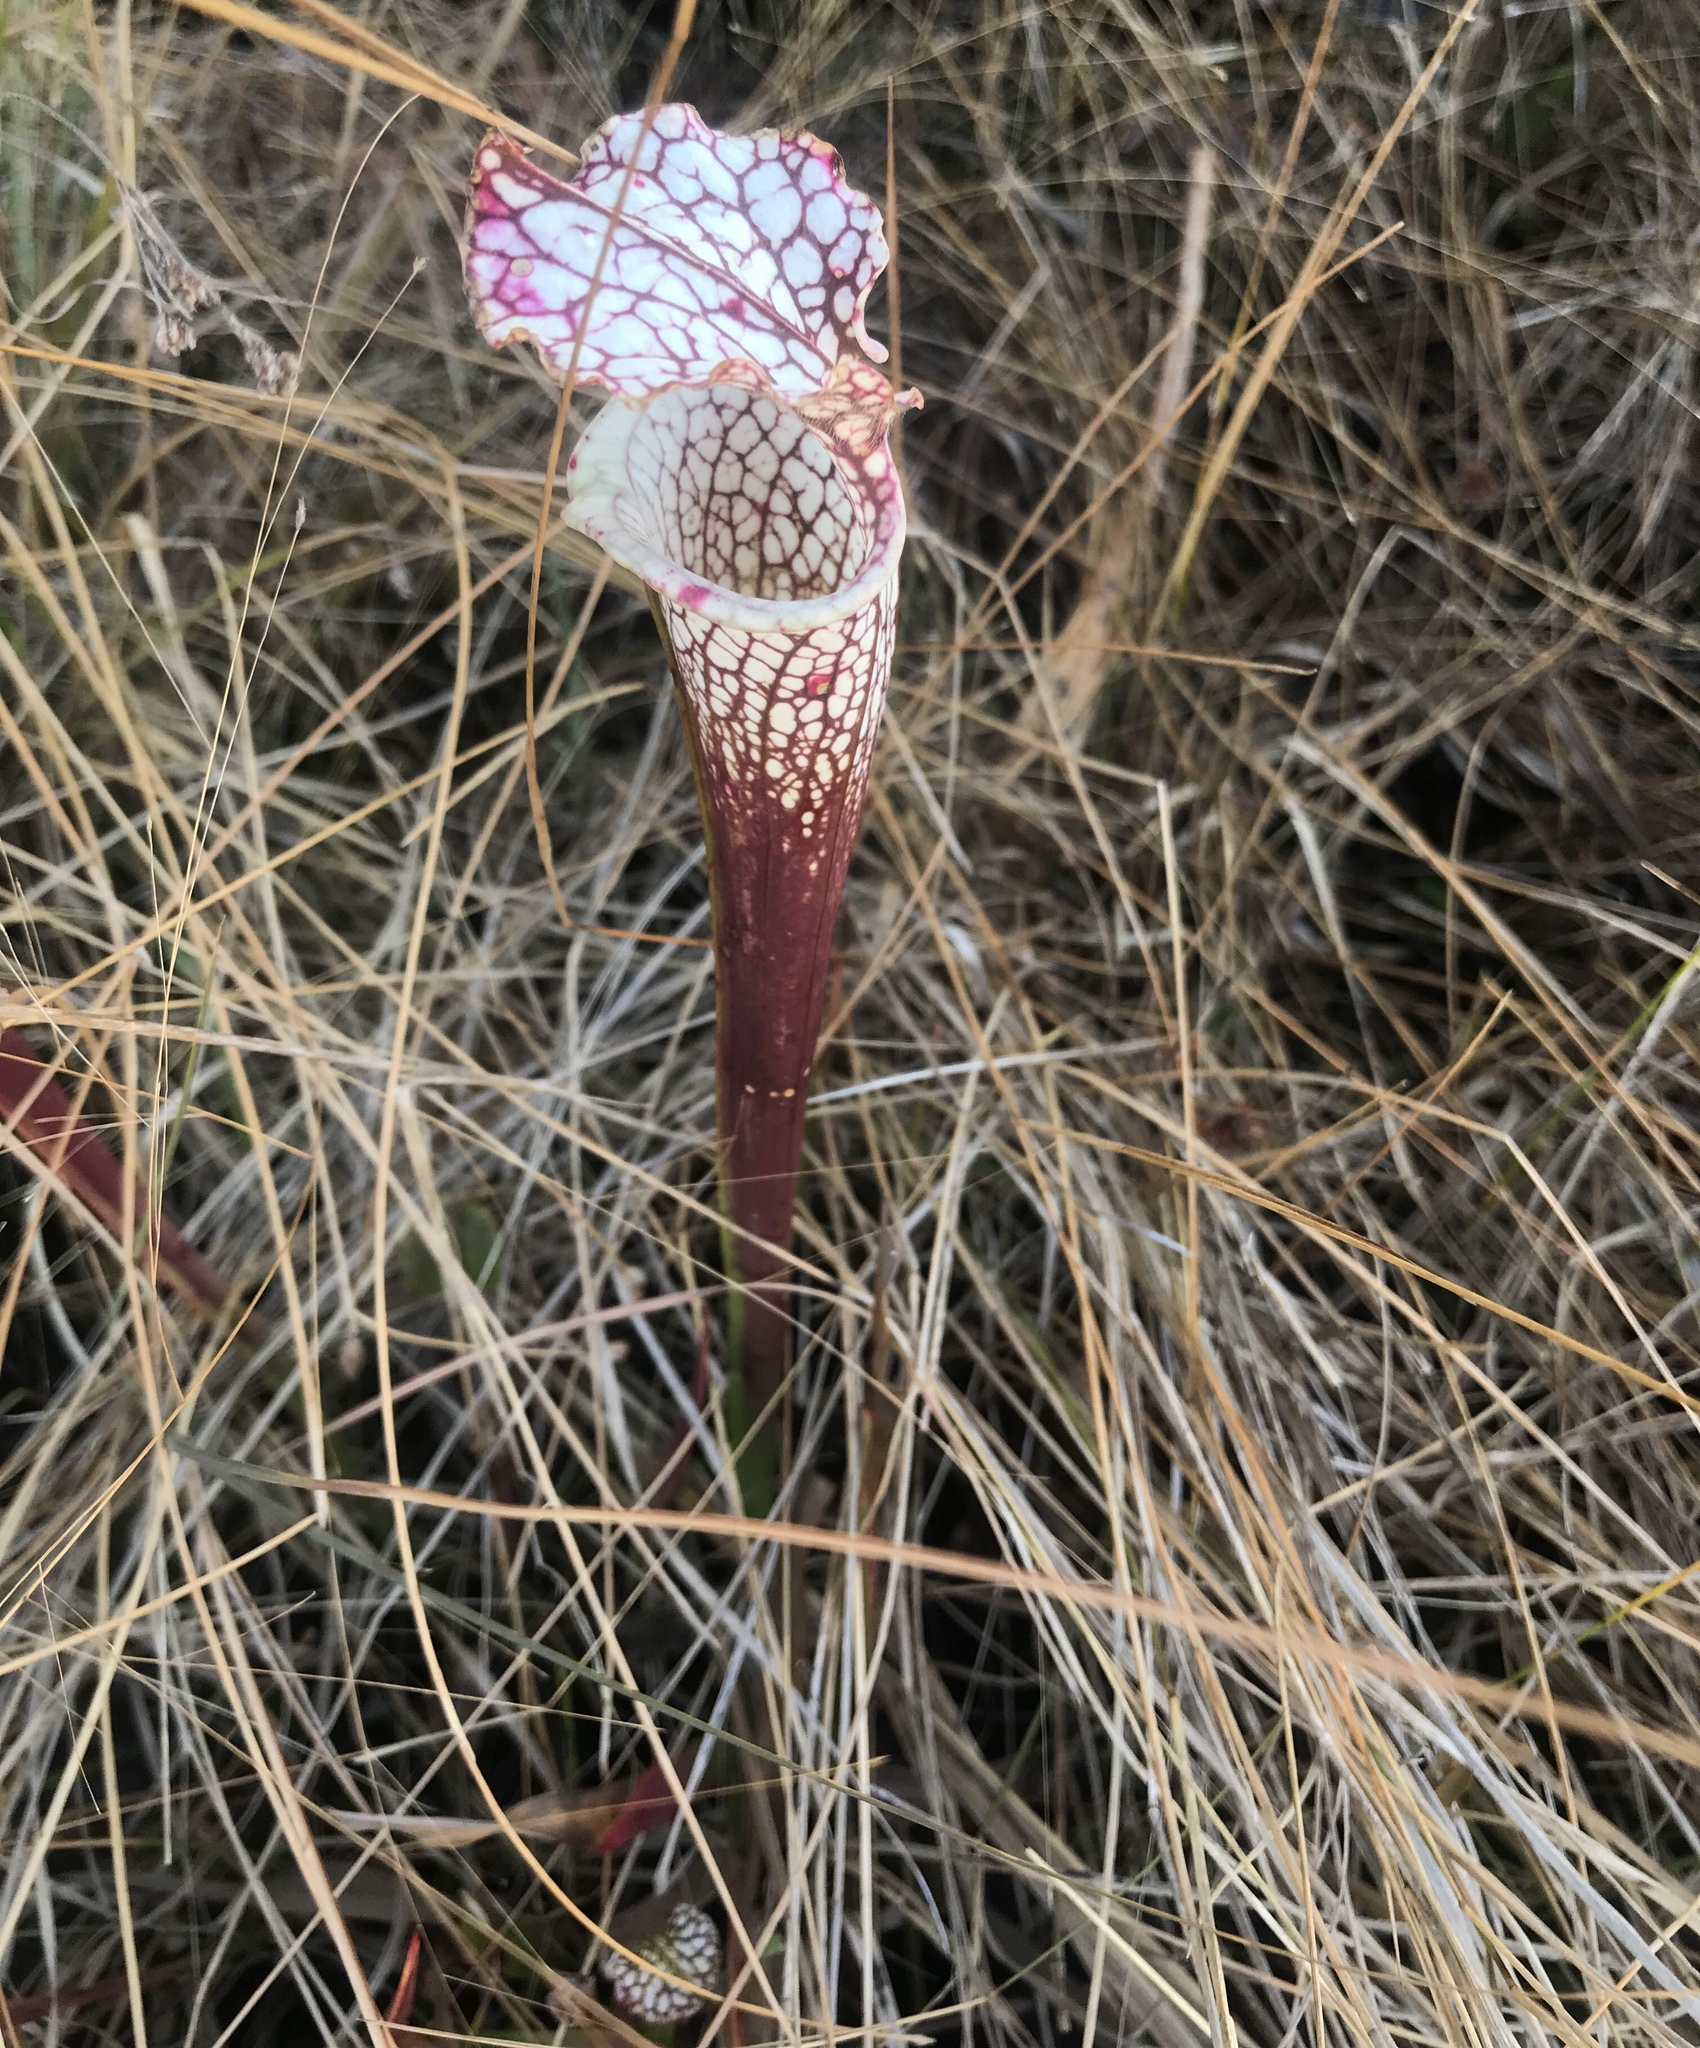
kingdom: Plantae
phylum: Tracheophyta
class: Magnoliopsida
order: Ericales
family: Sarraceniaceae
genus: Sarracenia
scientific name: Sarracenia leucophylla
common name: Purple trumpetleaf
